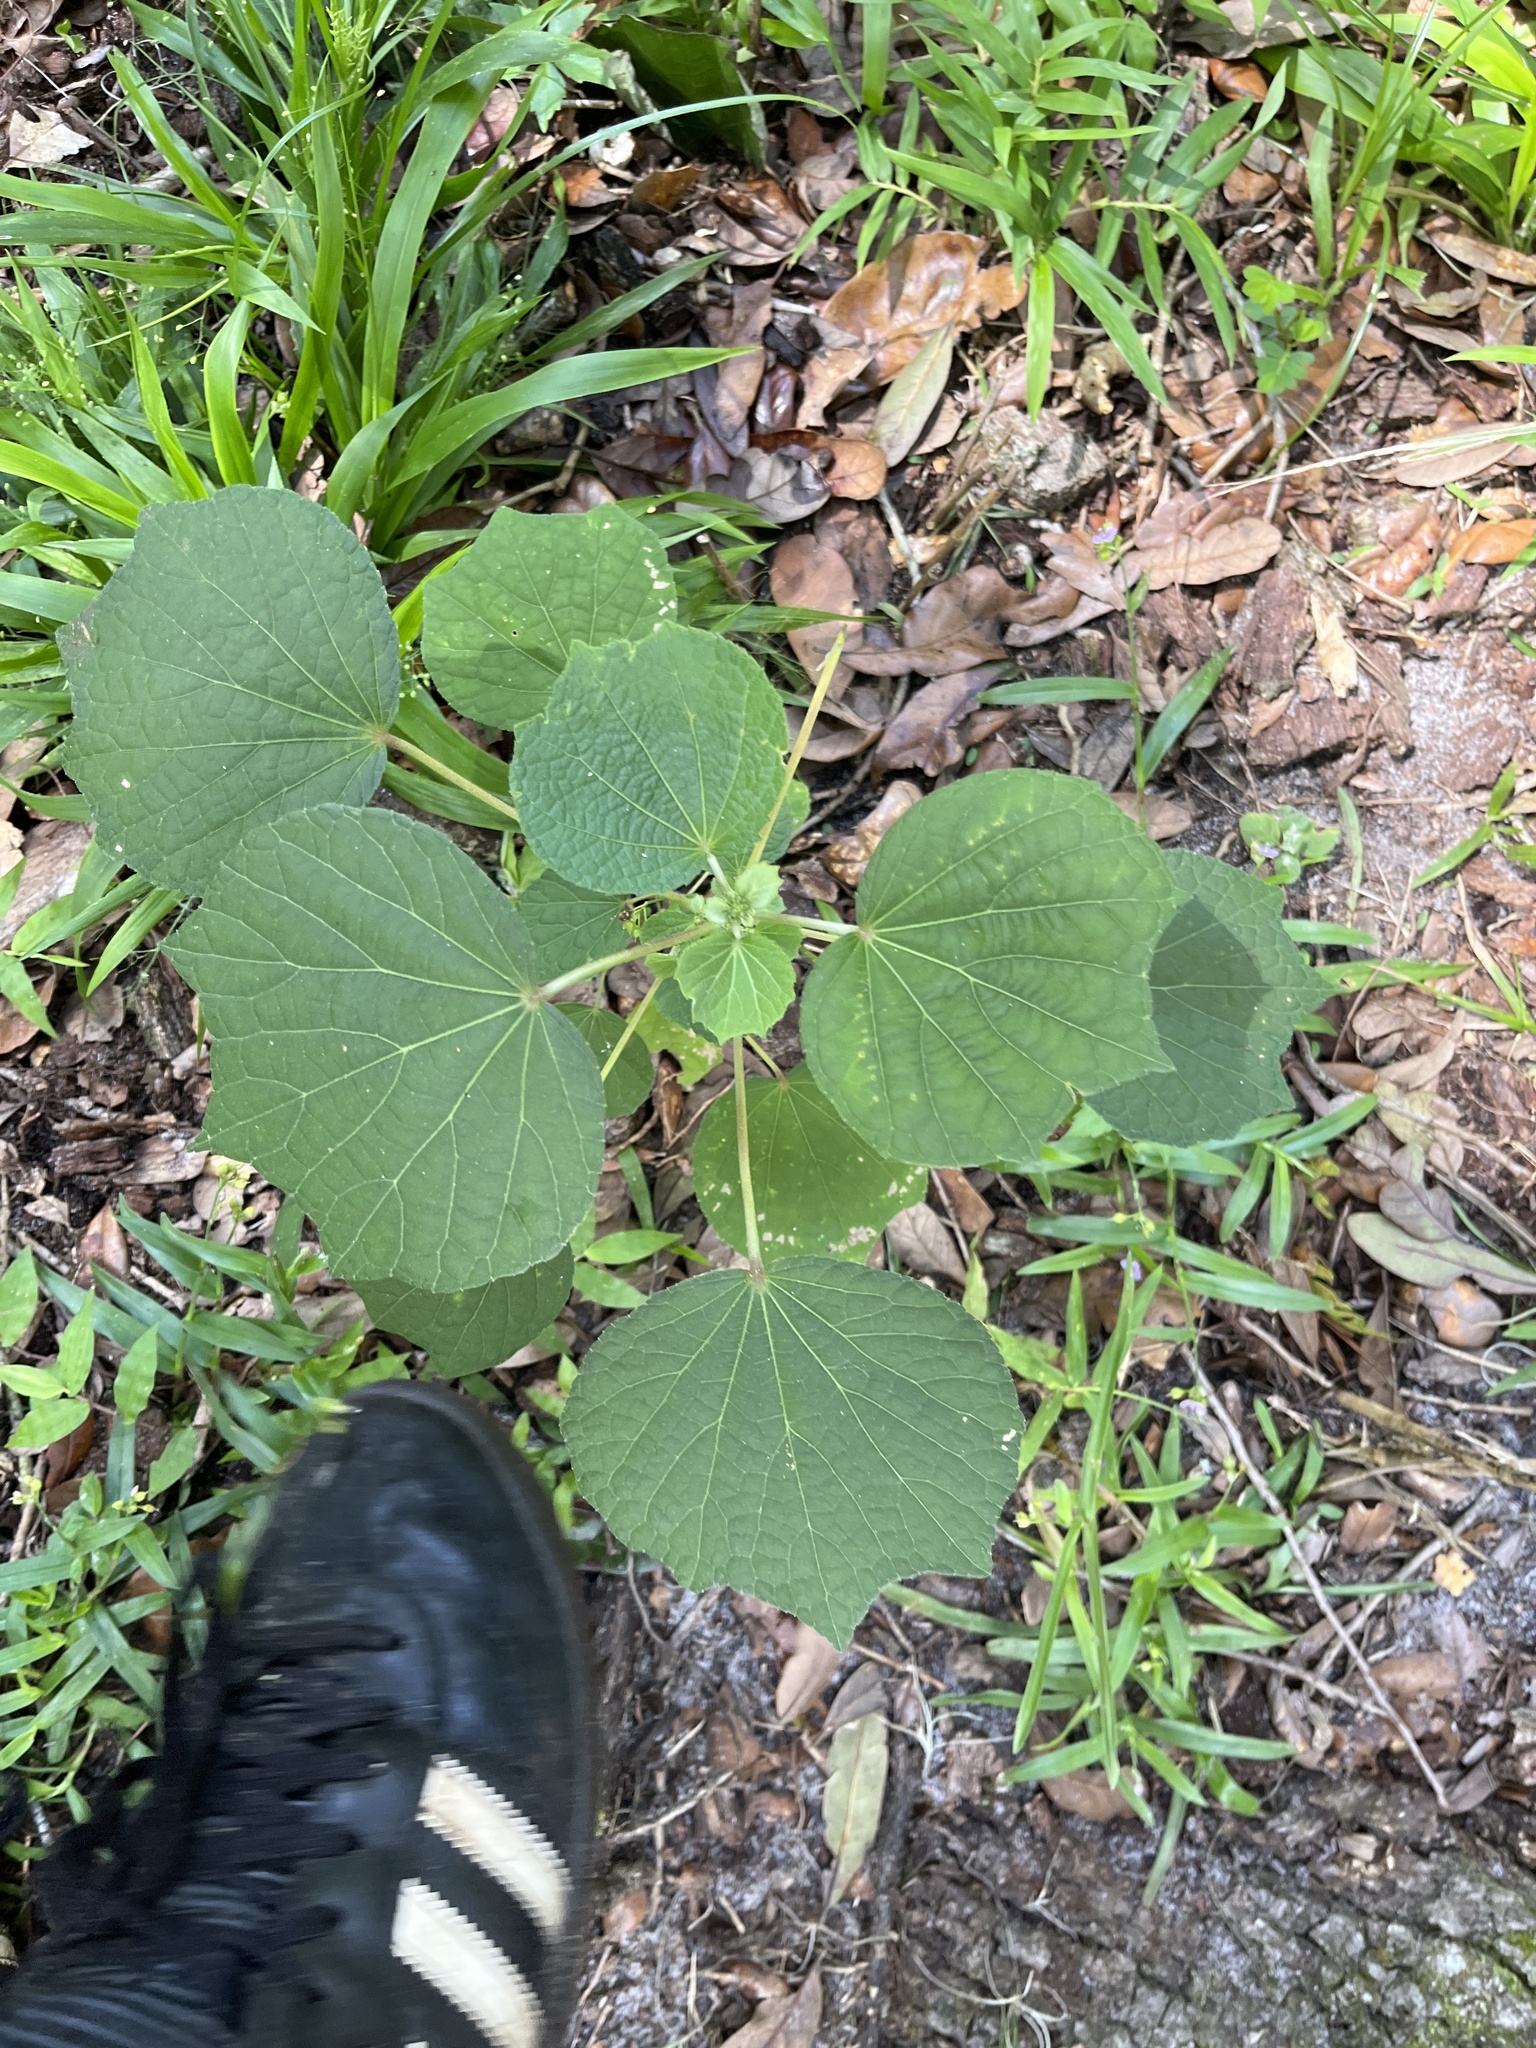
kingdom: Plantae
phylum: Tracheophyta
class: Magnoliopsida
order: Malvales
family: Malvaceae
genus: Urena
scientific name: Urena lobata
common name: Caesarweed
